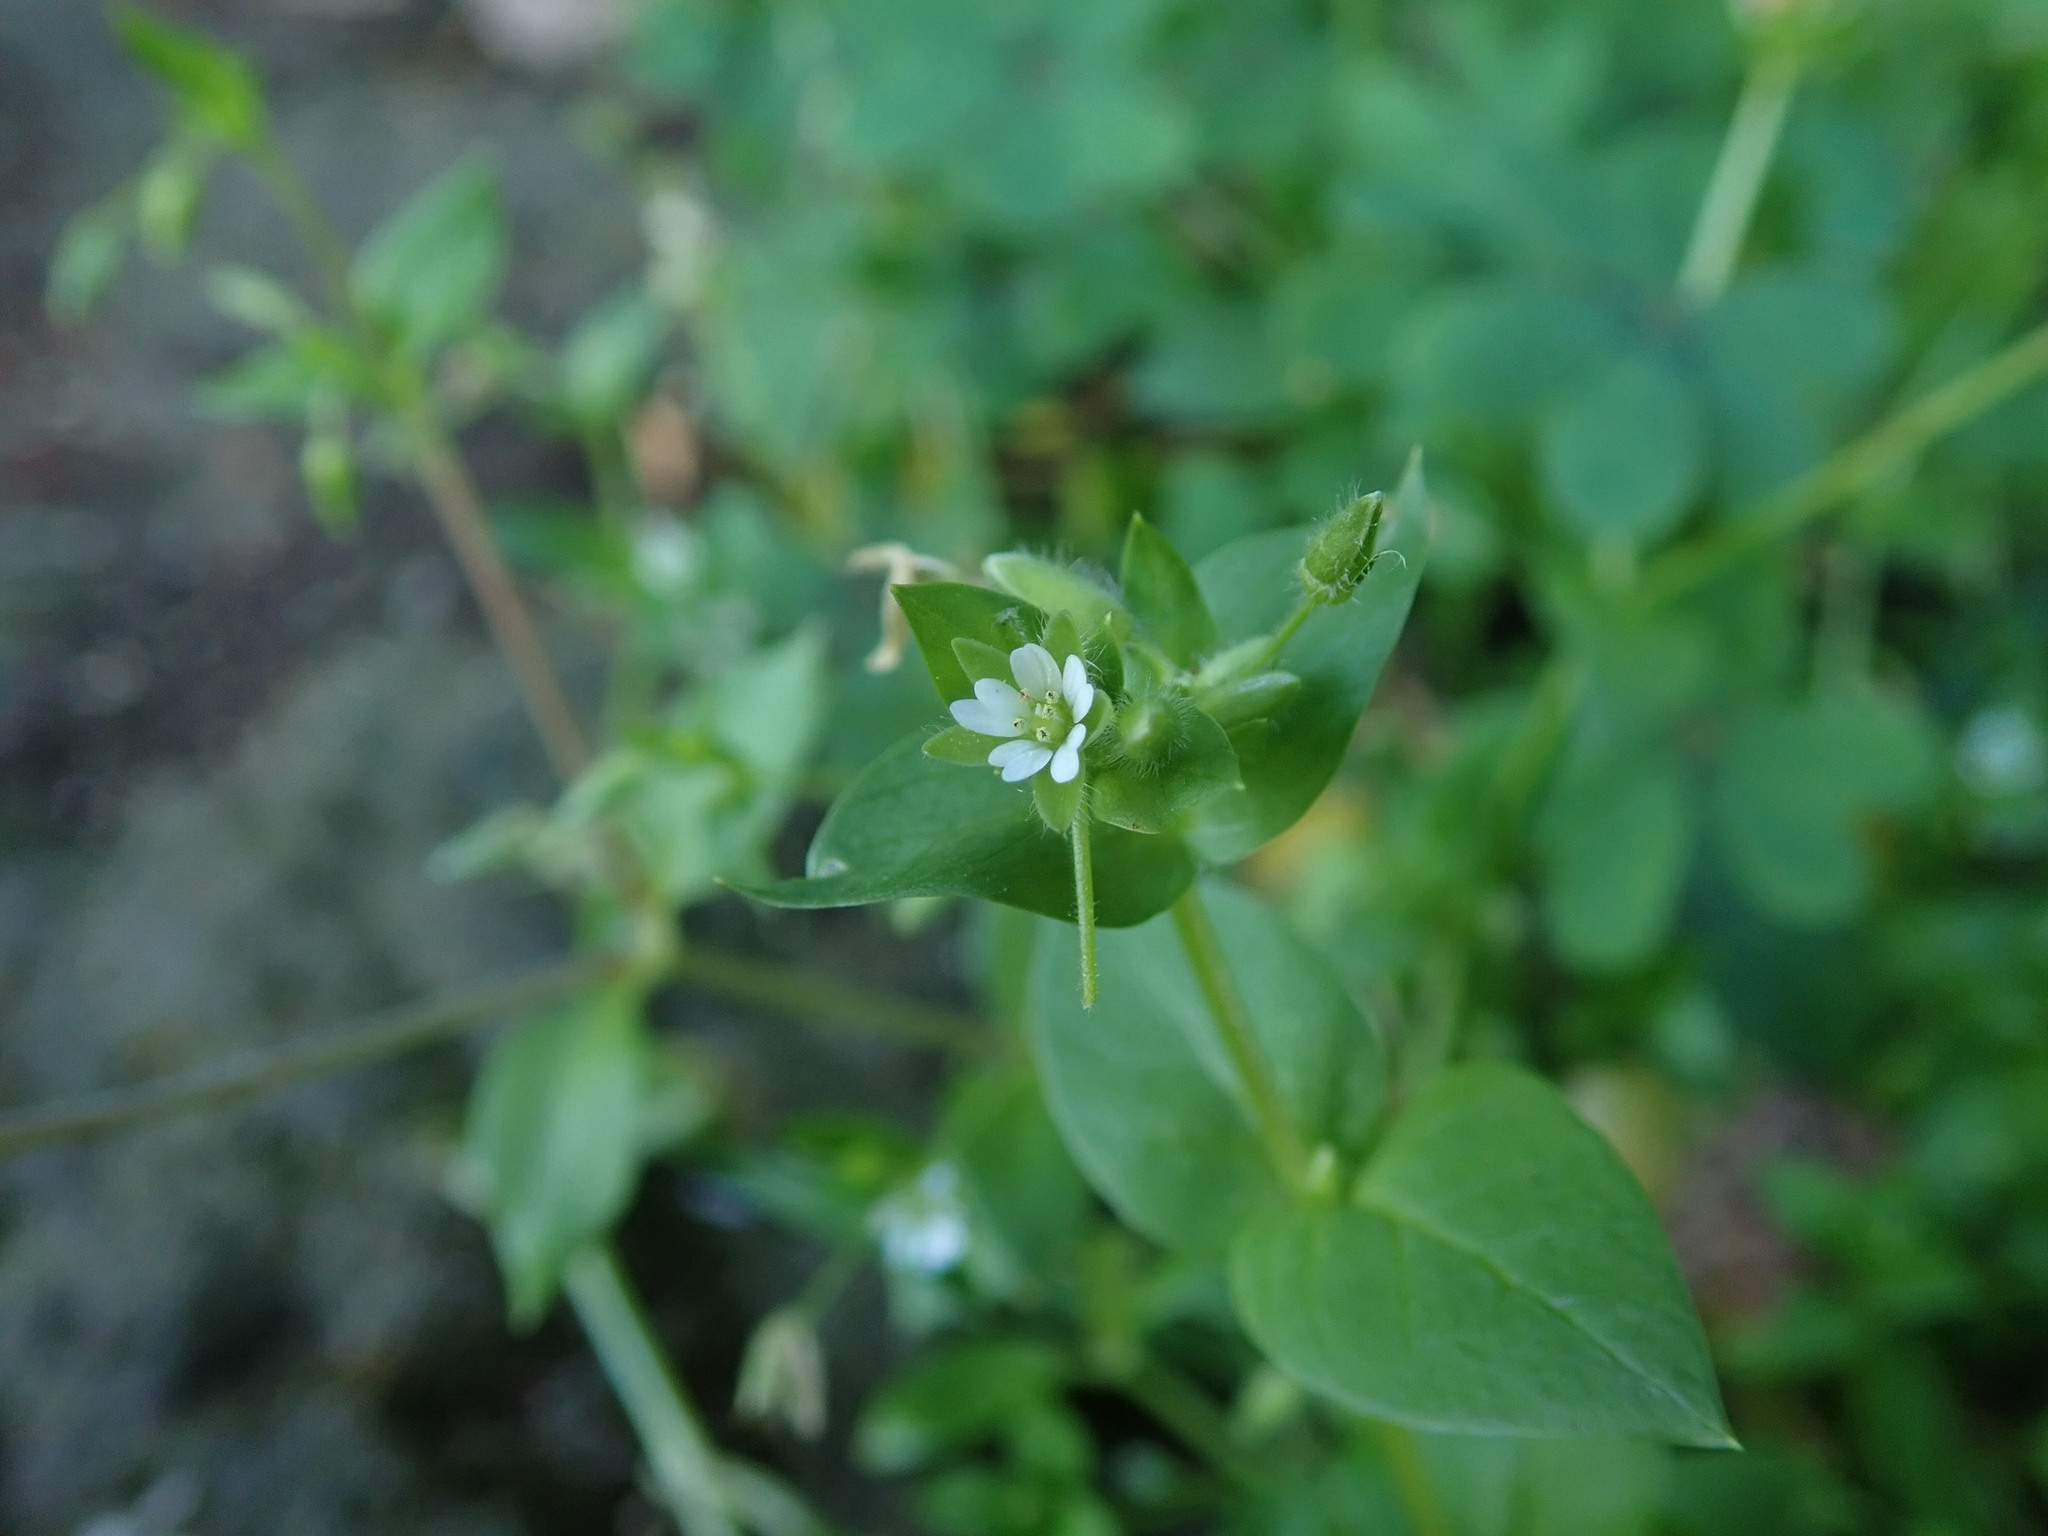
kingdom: Plantae
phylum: Tracheophyta
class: Magnoliopsida
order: Caryophyllales
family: Caryophyllaceae
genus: Stellaria
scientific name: Stellaria media
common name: Common chickweed
